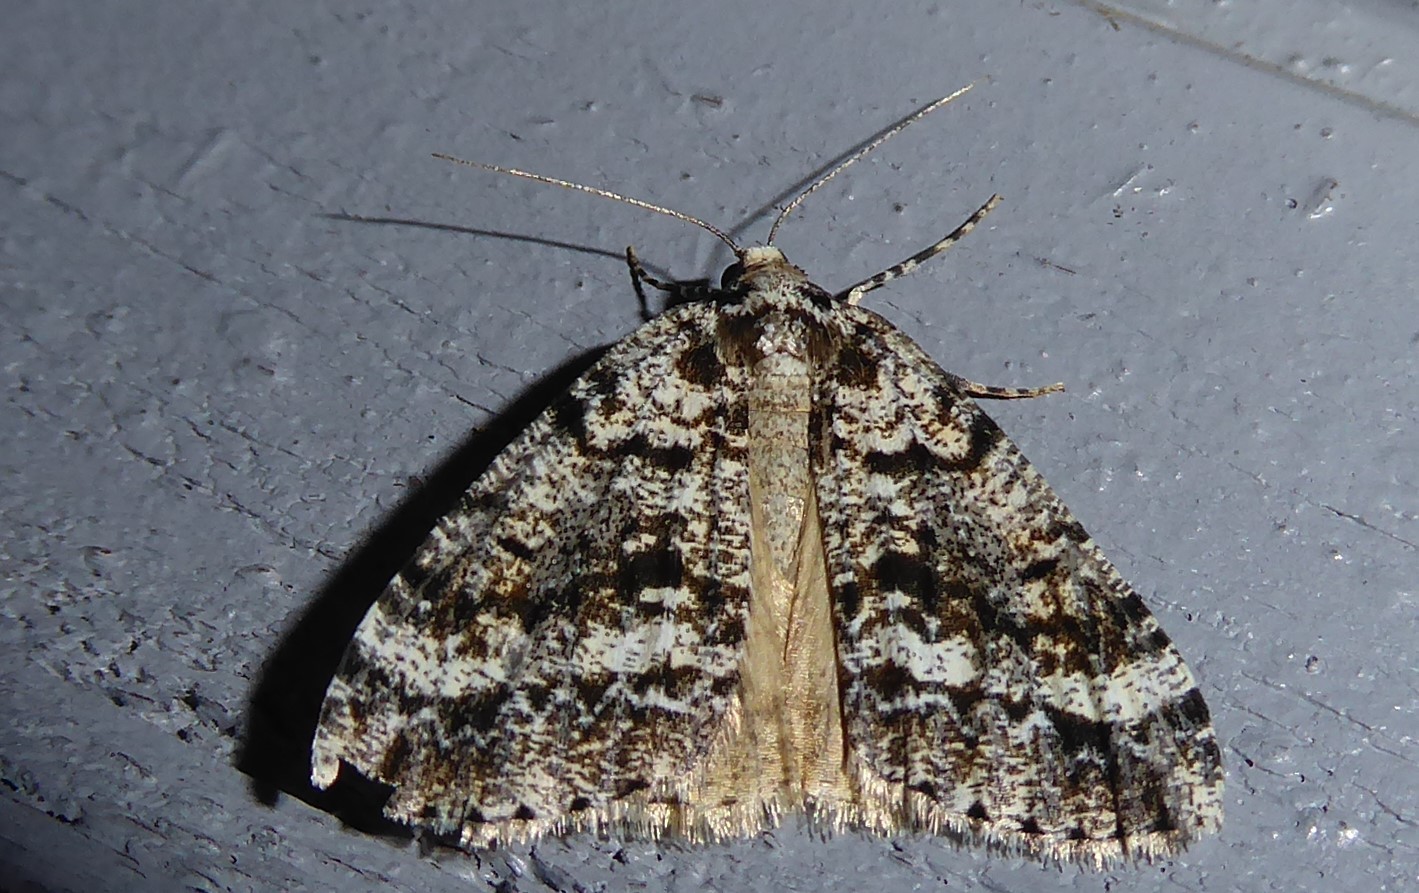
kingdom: Animalia
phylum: Arthropoda
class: Insecta
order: Lepidoptera
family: Geometridae
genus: Pseudocoremia
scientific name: Pseudocoremia leucelaea
